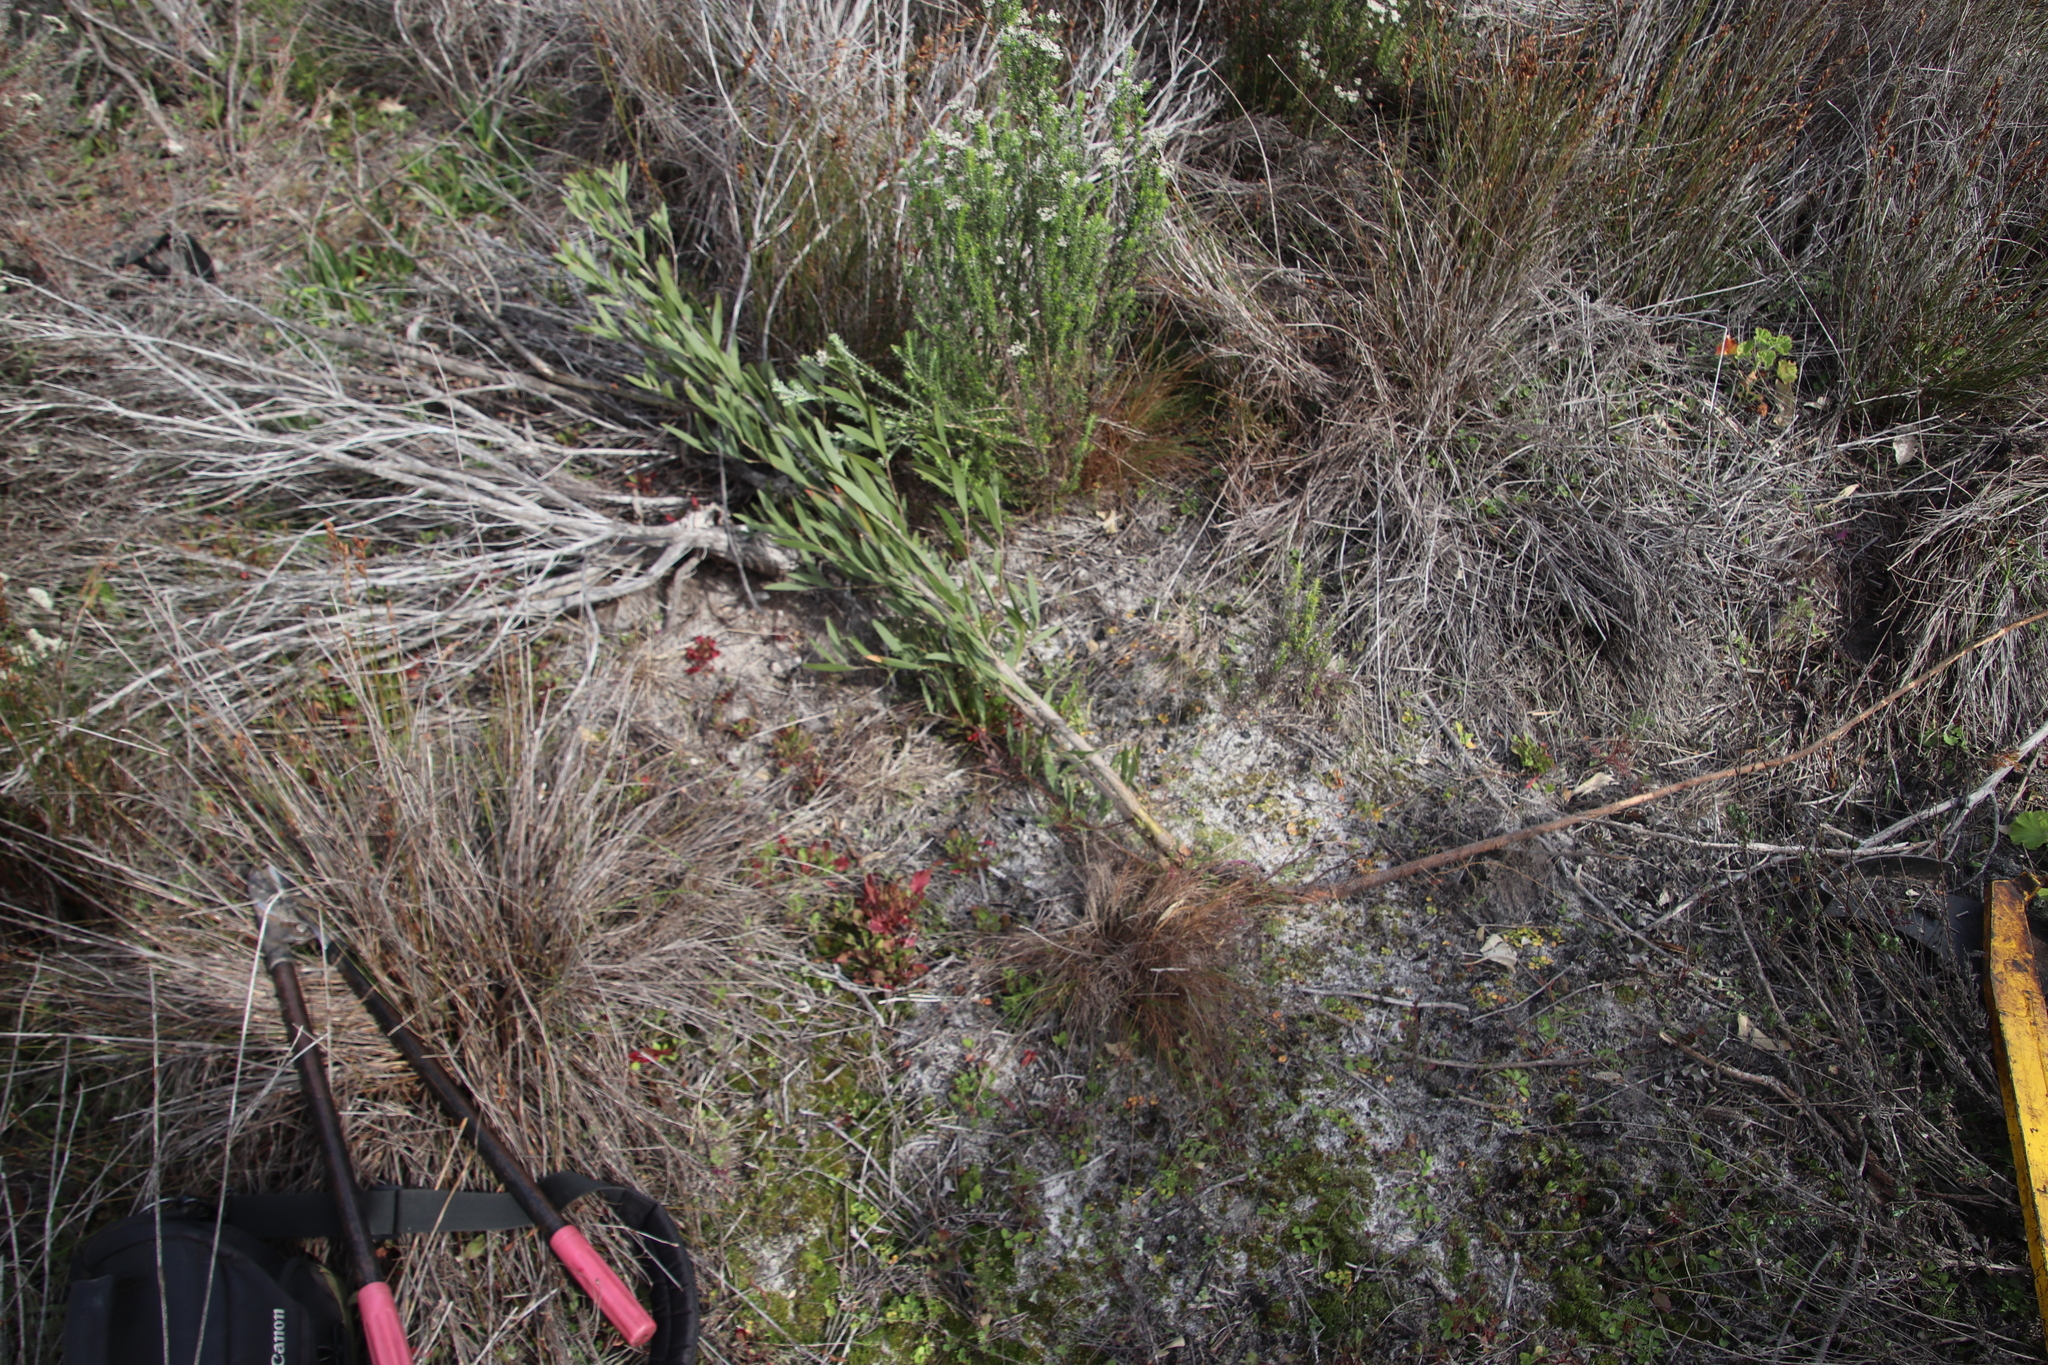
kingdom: Plantae
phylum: Tracheophyta
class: Magnoliopsida
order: Fabales
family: Fabaceae
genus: Acacia
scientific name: Acacia melanoxylon
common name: Blackwood
